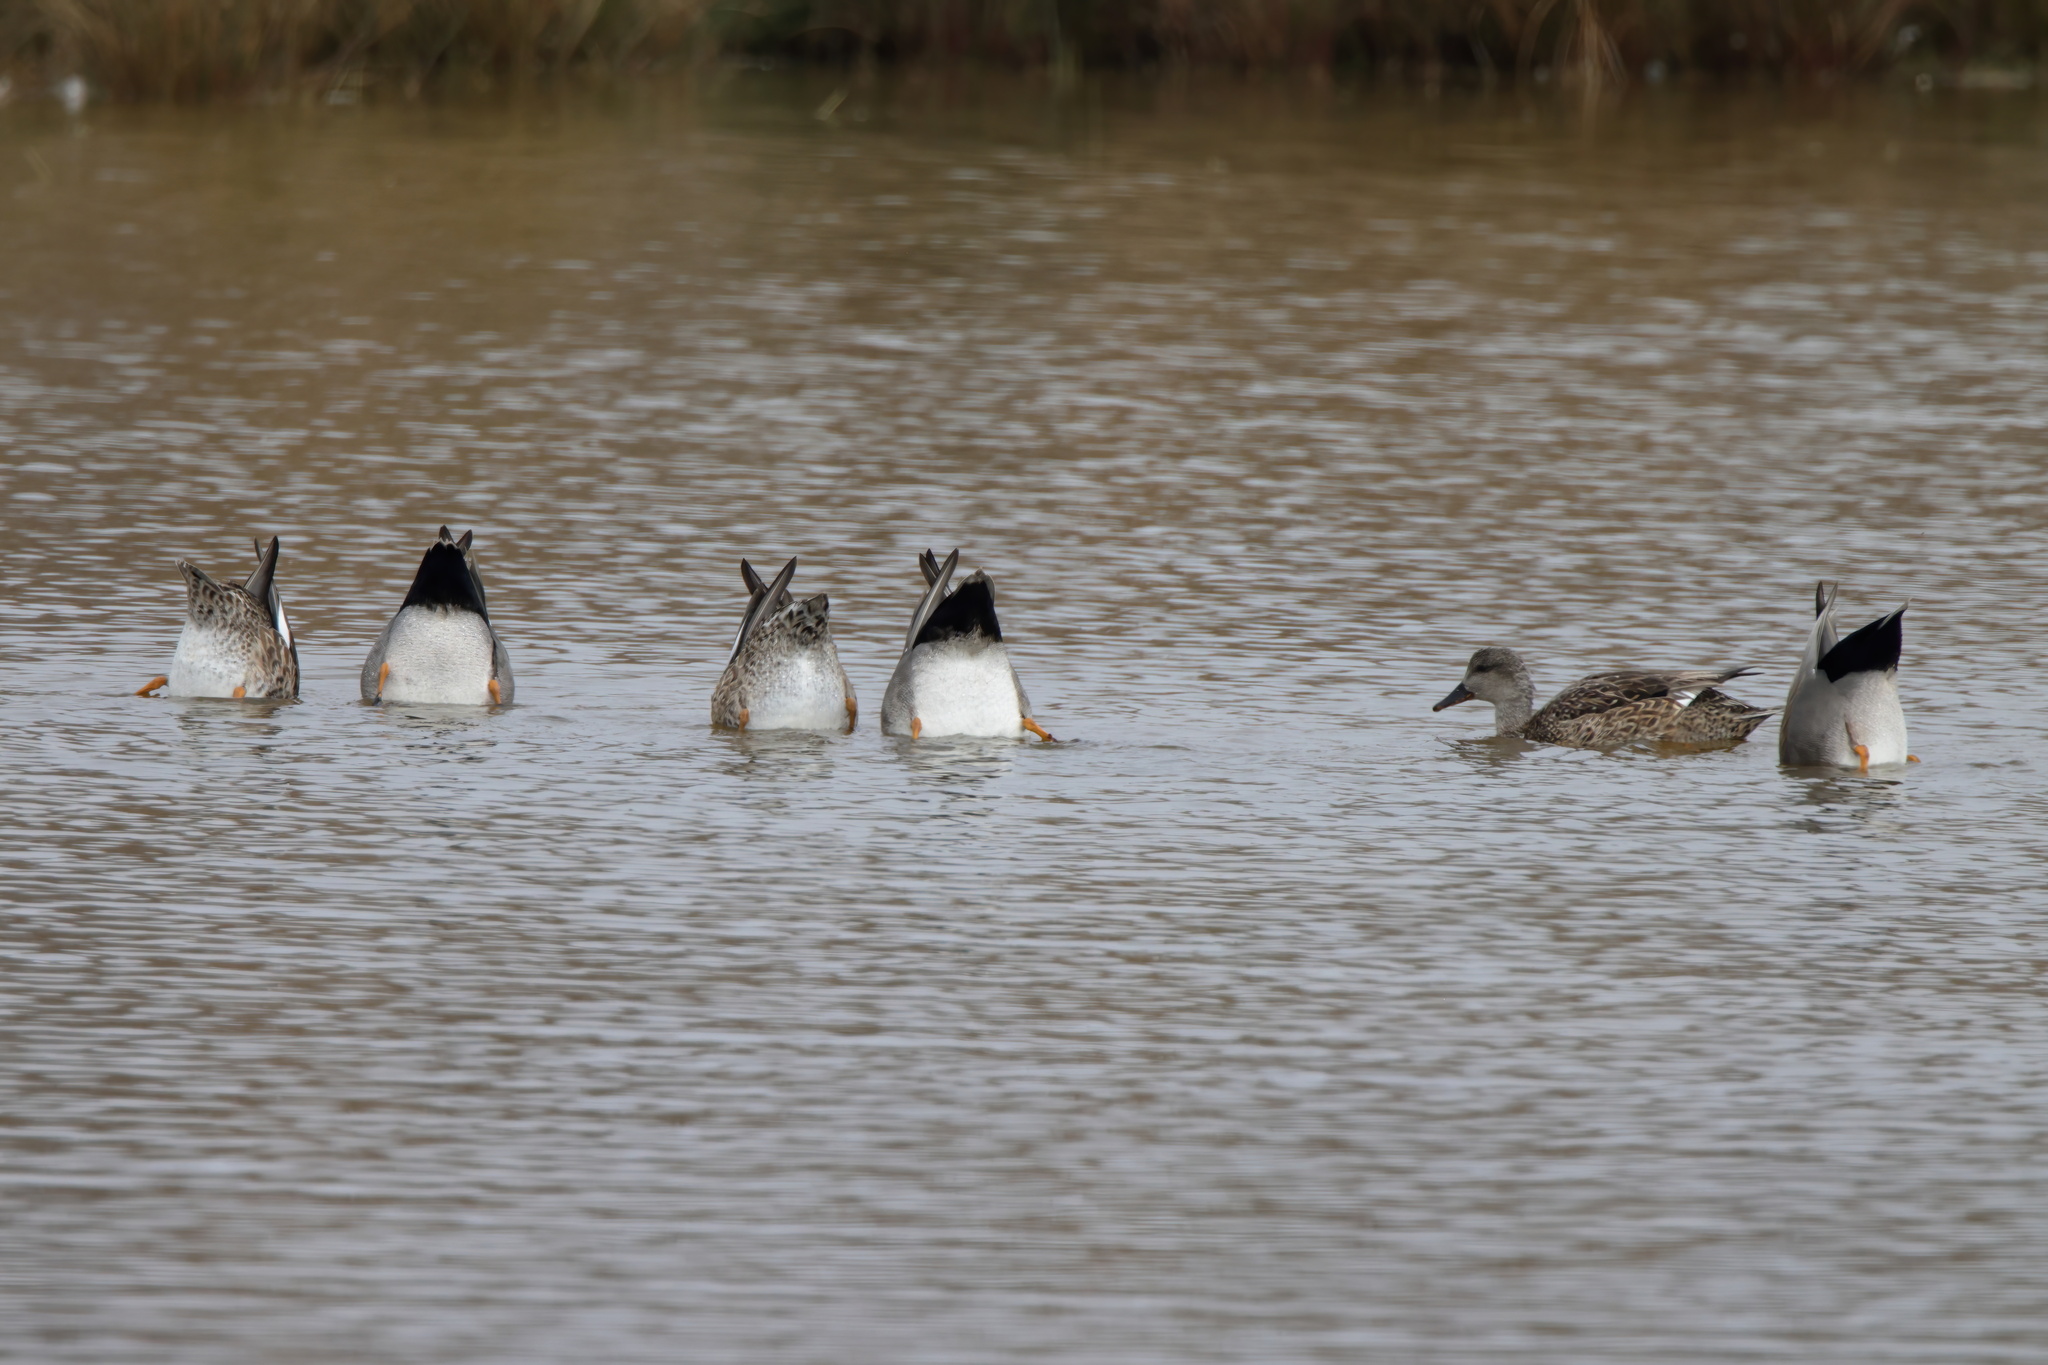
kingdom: Animalia
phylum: Chordata
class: Aves
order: Anseriformes
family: Anatidae
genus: Mareca
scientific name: Mareca strepera
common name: Gadwall
